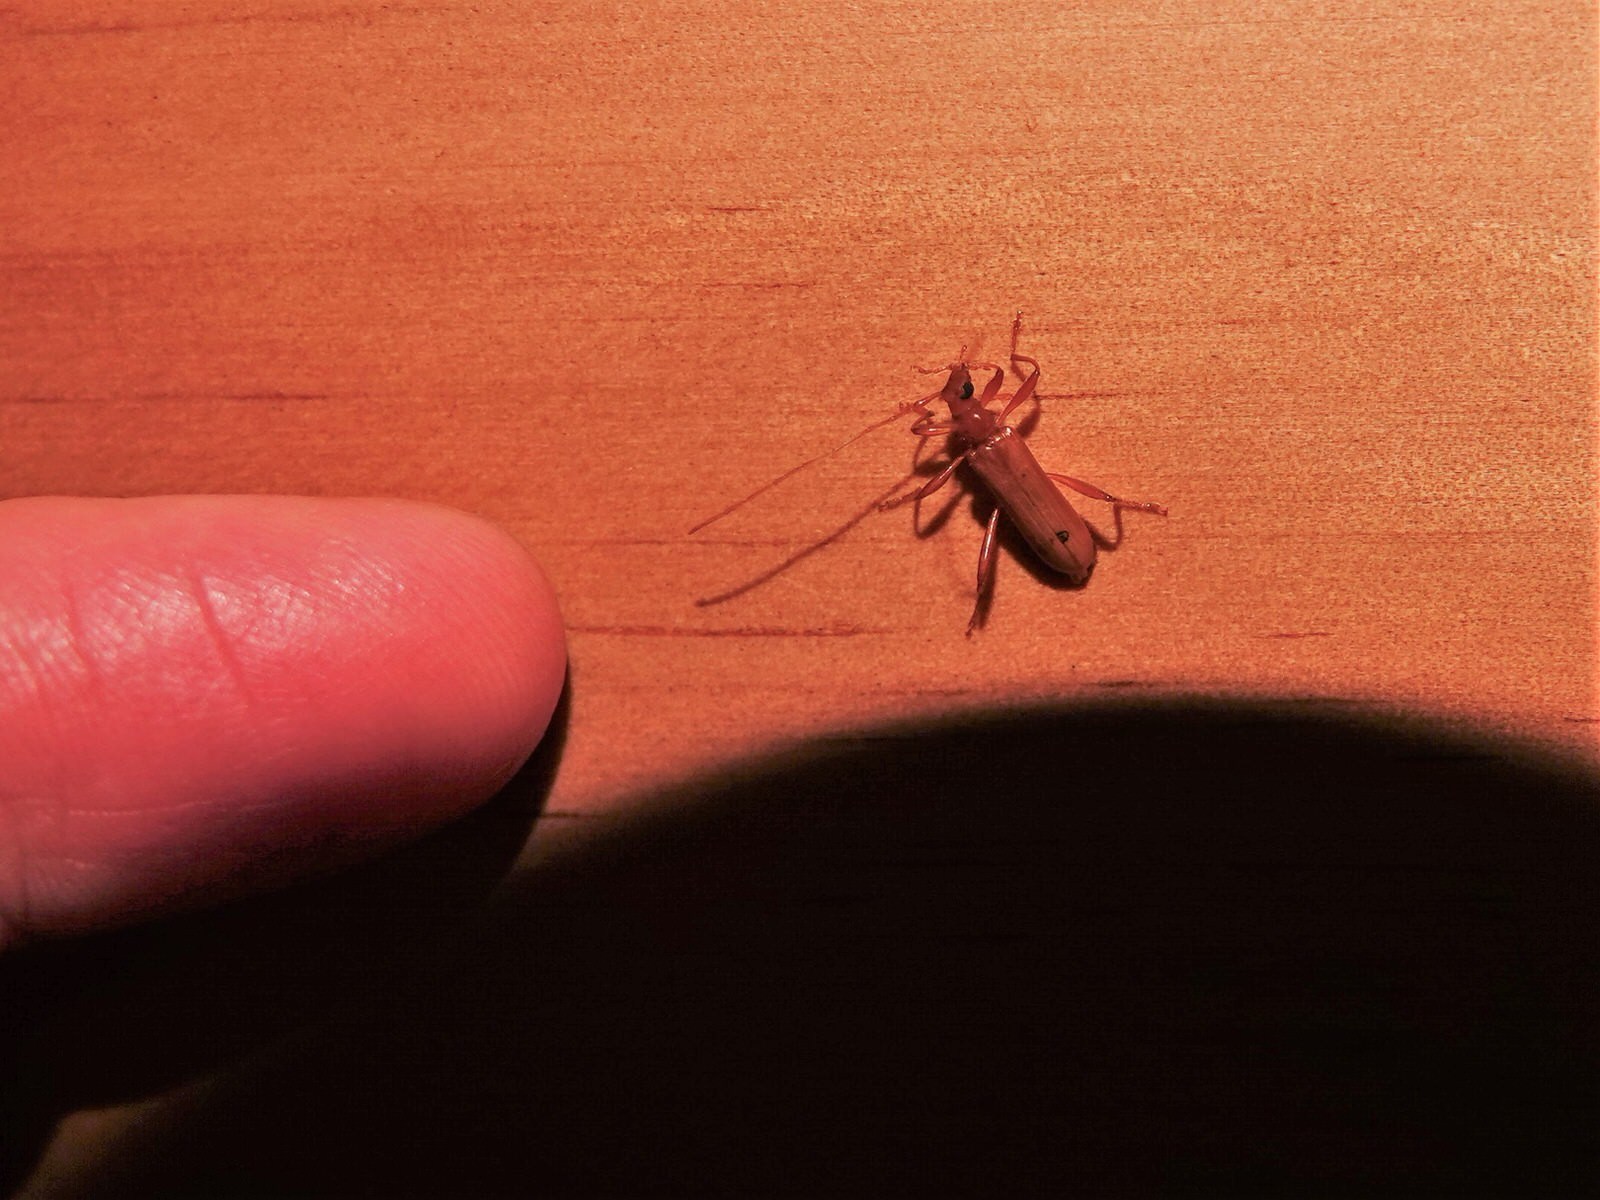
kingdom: Animalia
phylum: Arthropoda
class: Insecta
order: Coleoptera
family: Cerambycidae
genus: Votum
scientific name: Votum munda
